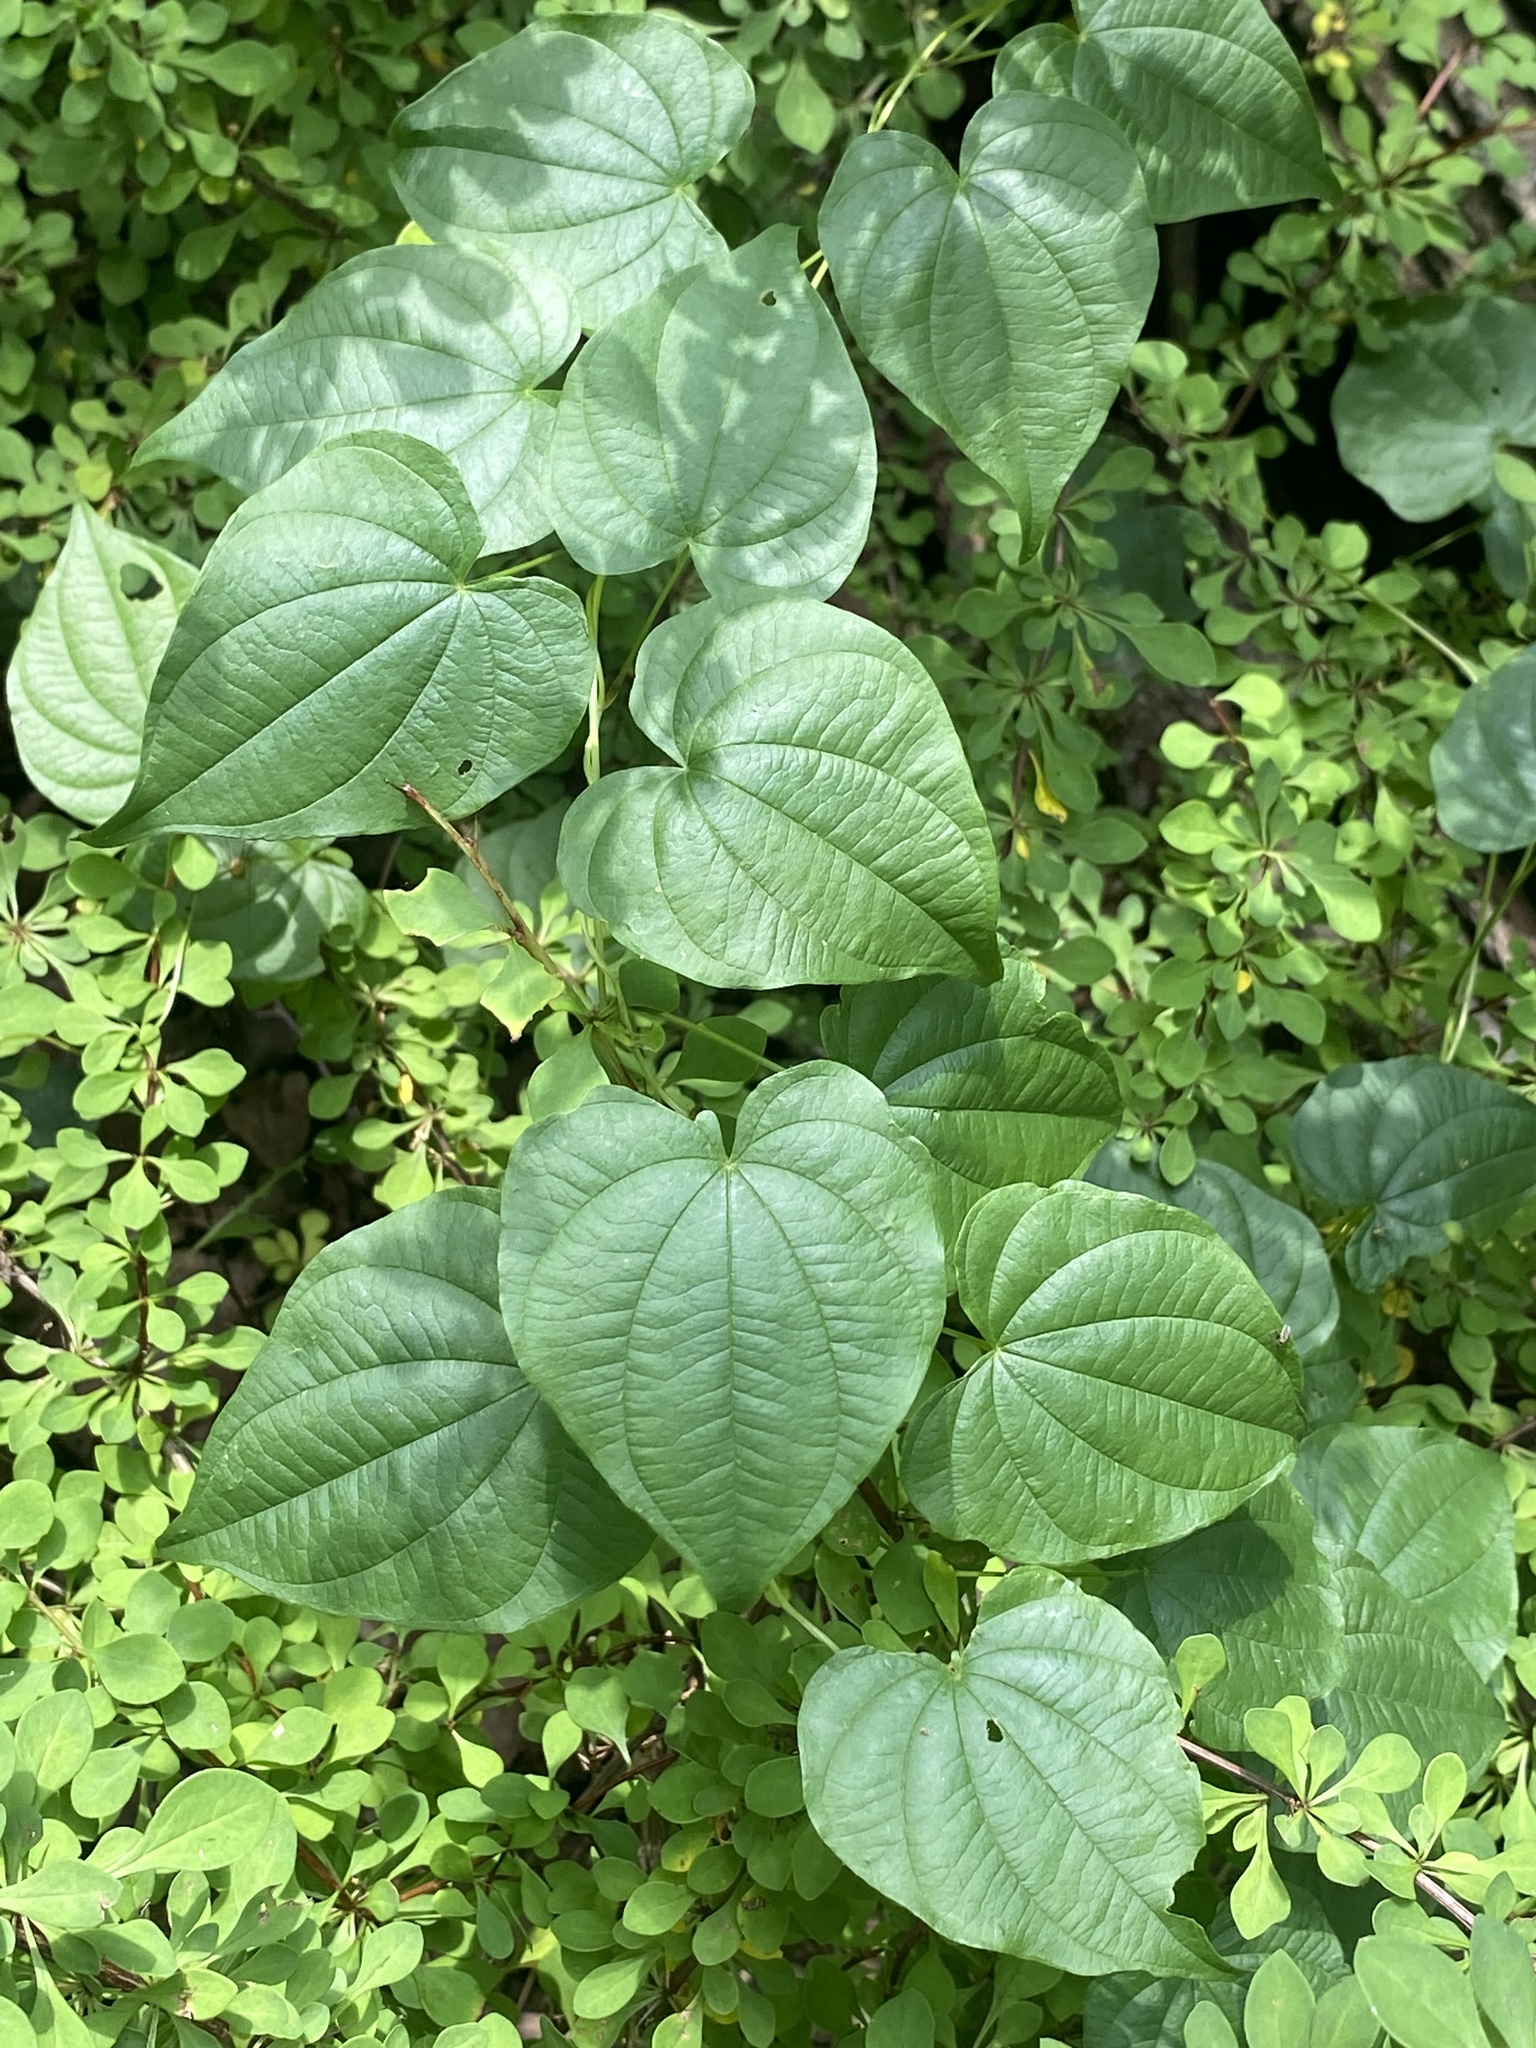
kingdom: Plantae
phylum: Tracheophyta
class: Liliopsida
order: Dioscoreales
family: Dioscoreaceae
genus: Dioscorea
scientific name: Dioscorea villosa
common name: Wild yam
